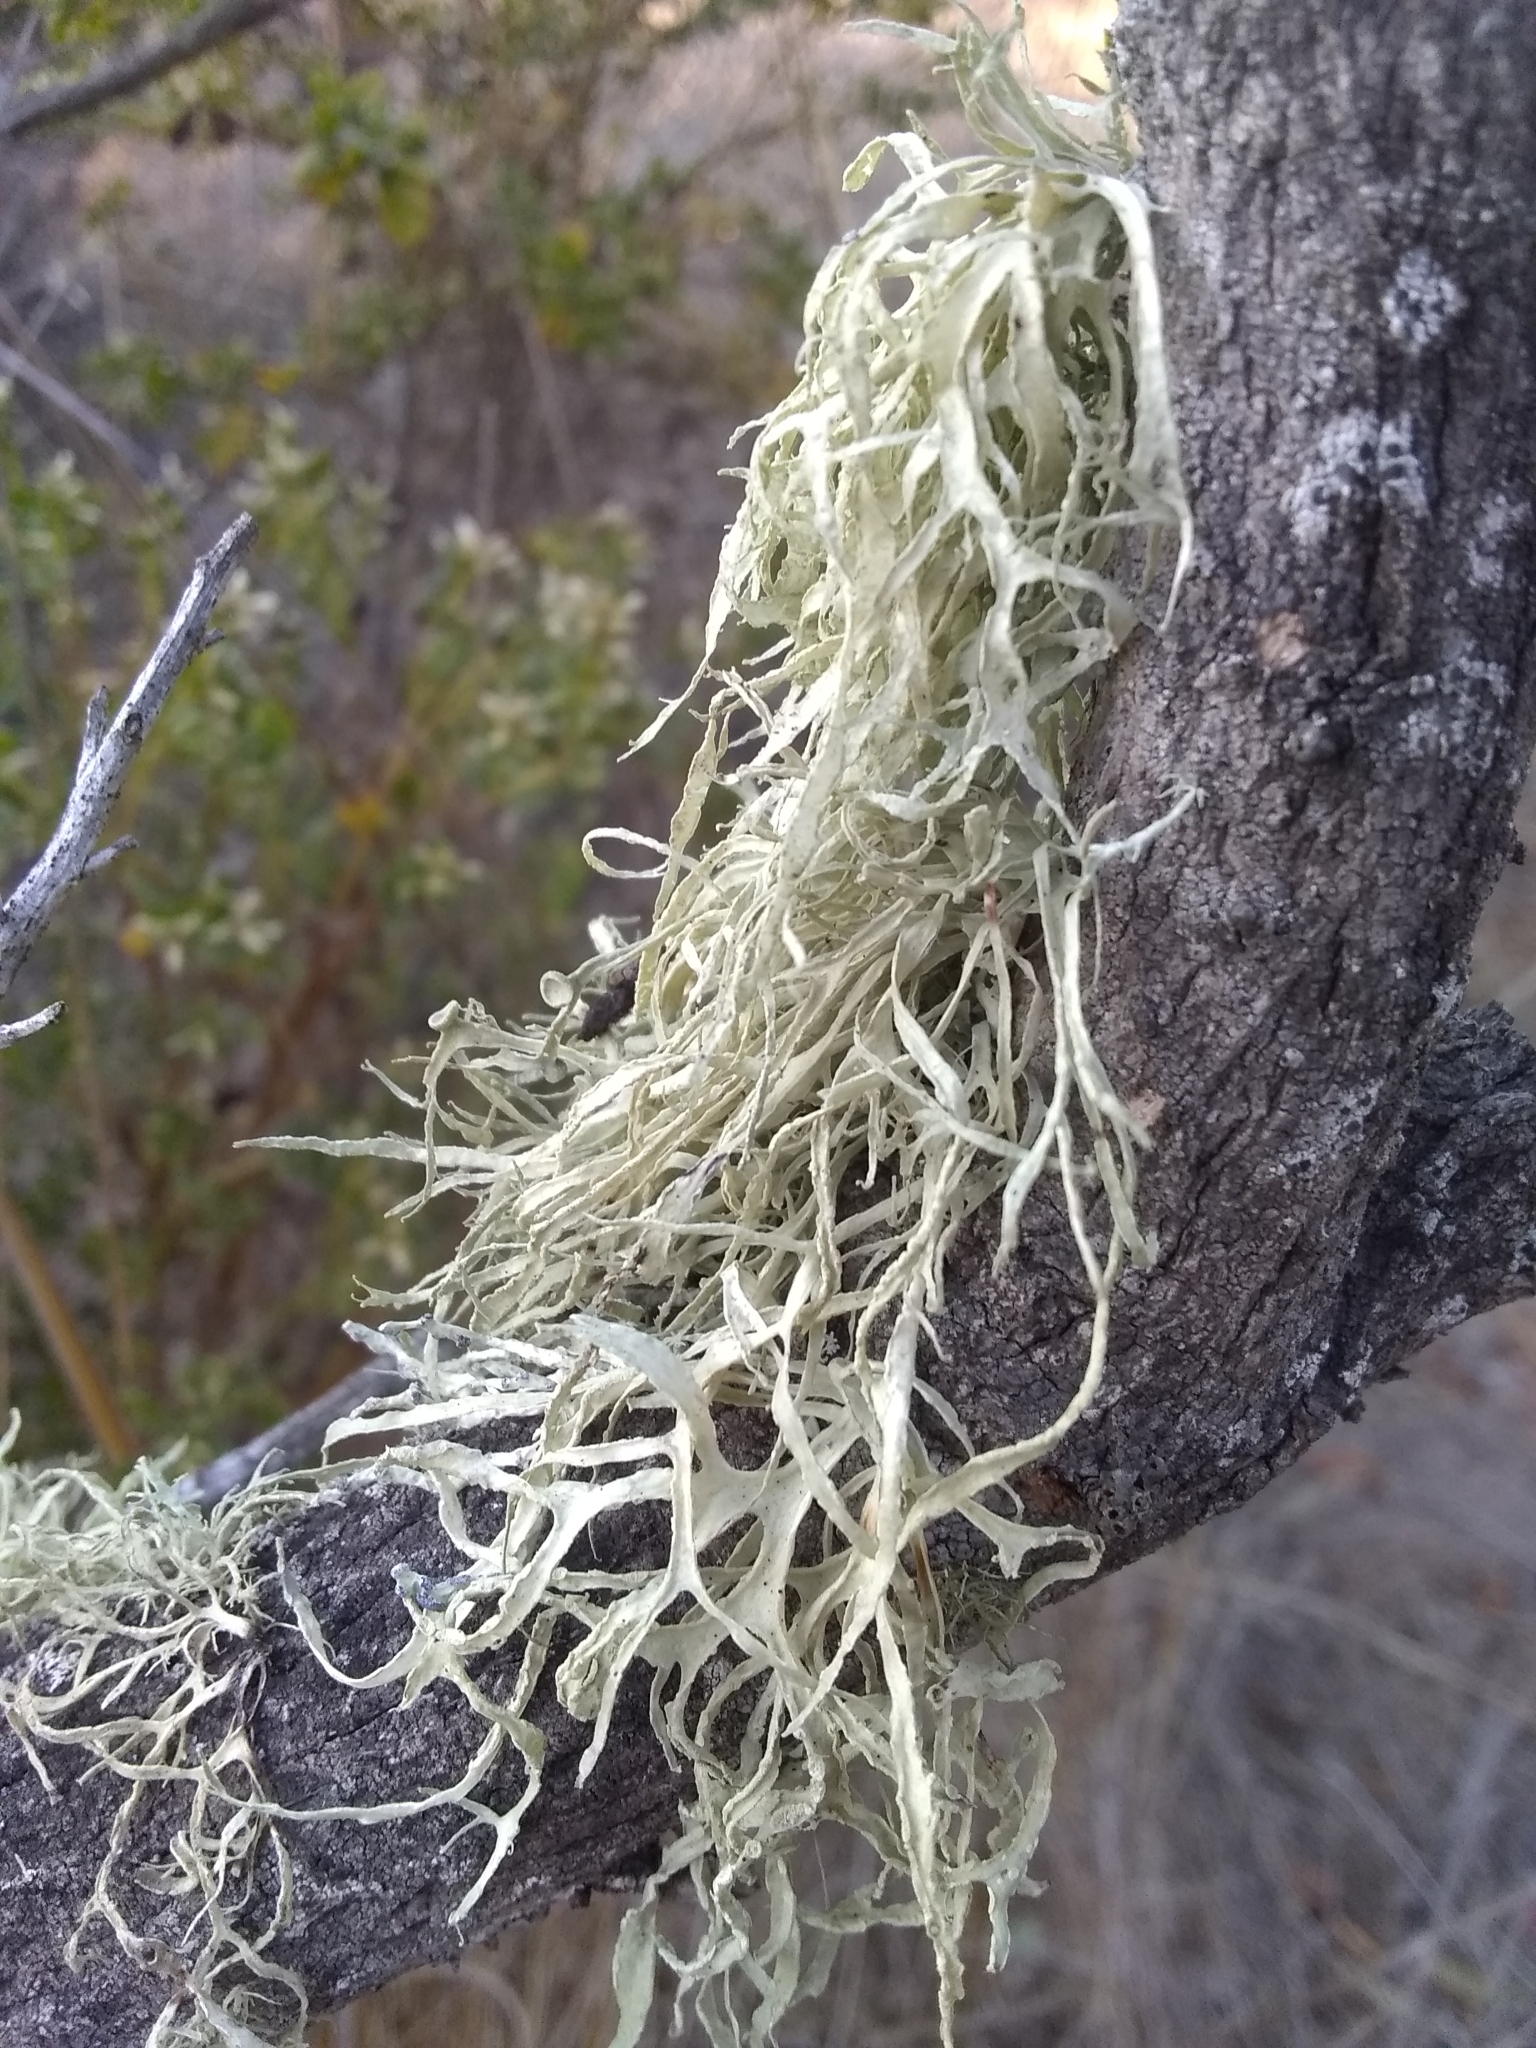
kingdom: Fungi
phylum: Ascomycota
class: Lecanoromycetes
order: Lecanorales
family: Parmeliaceae
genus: Evernia
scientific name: Evernia prunastri
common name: Oak moss
